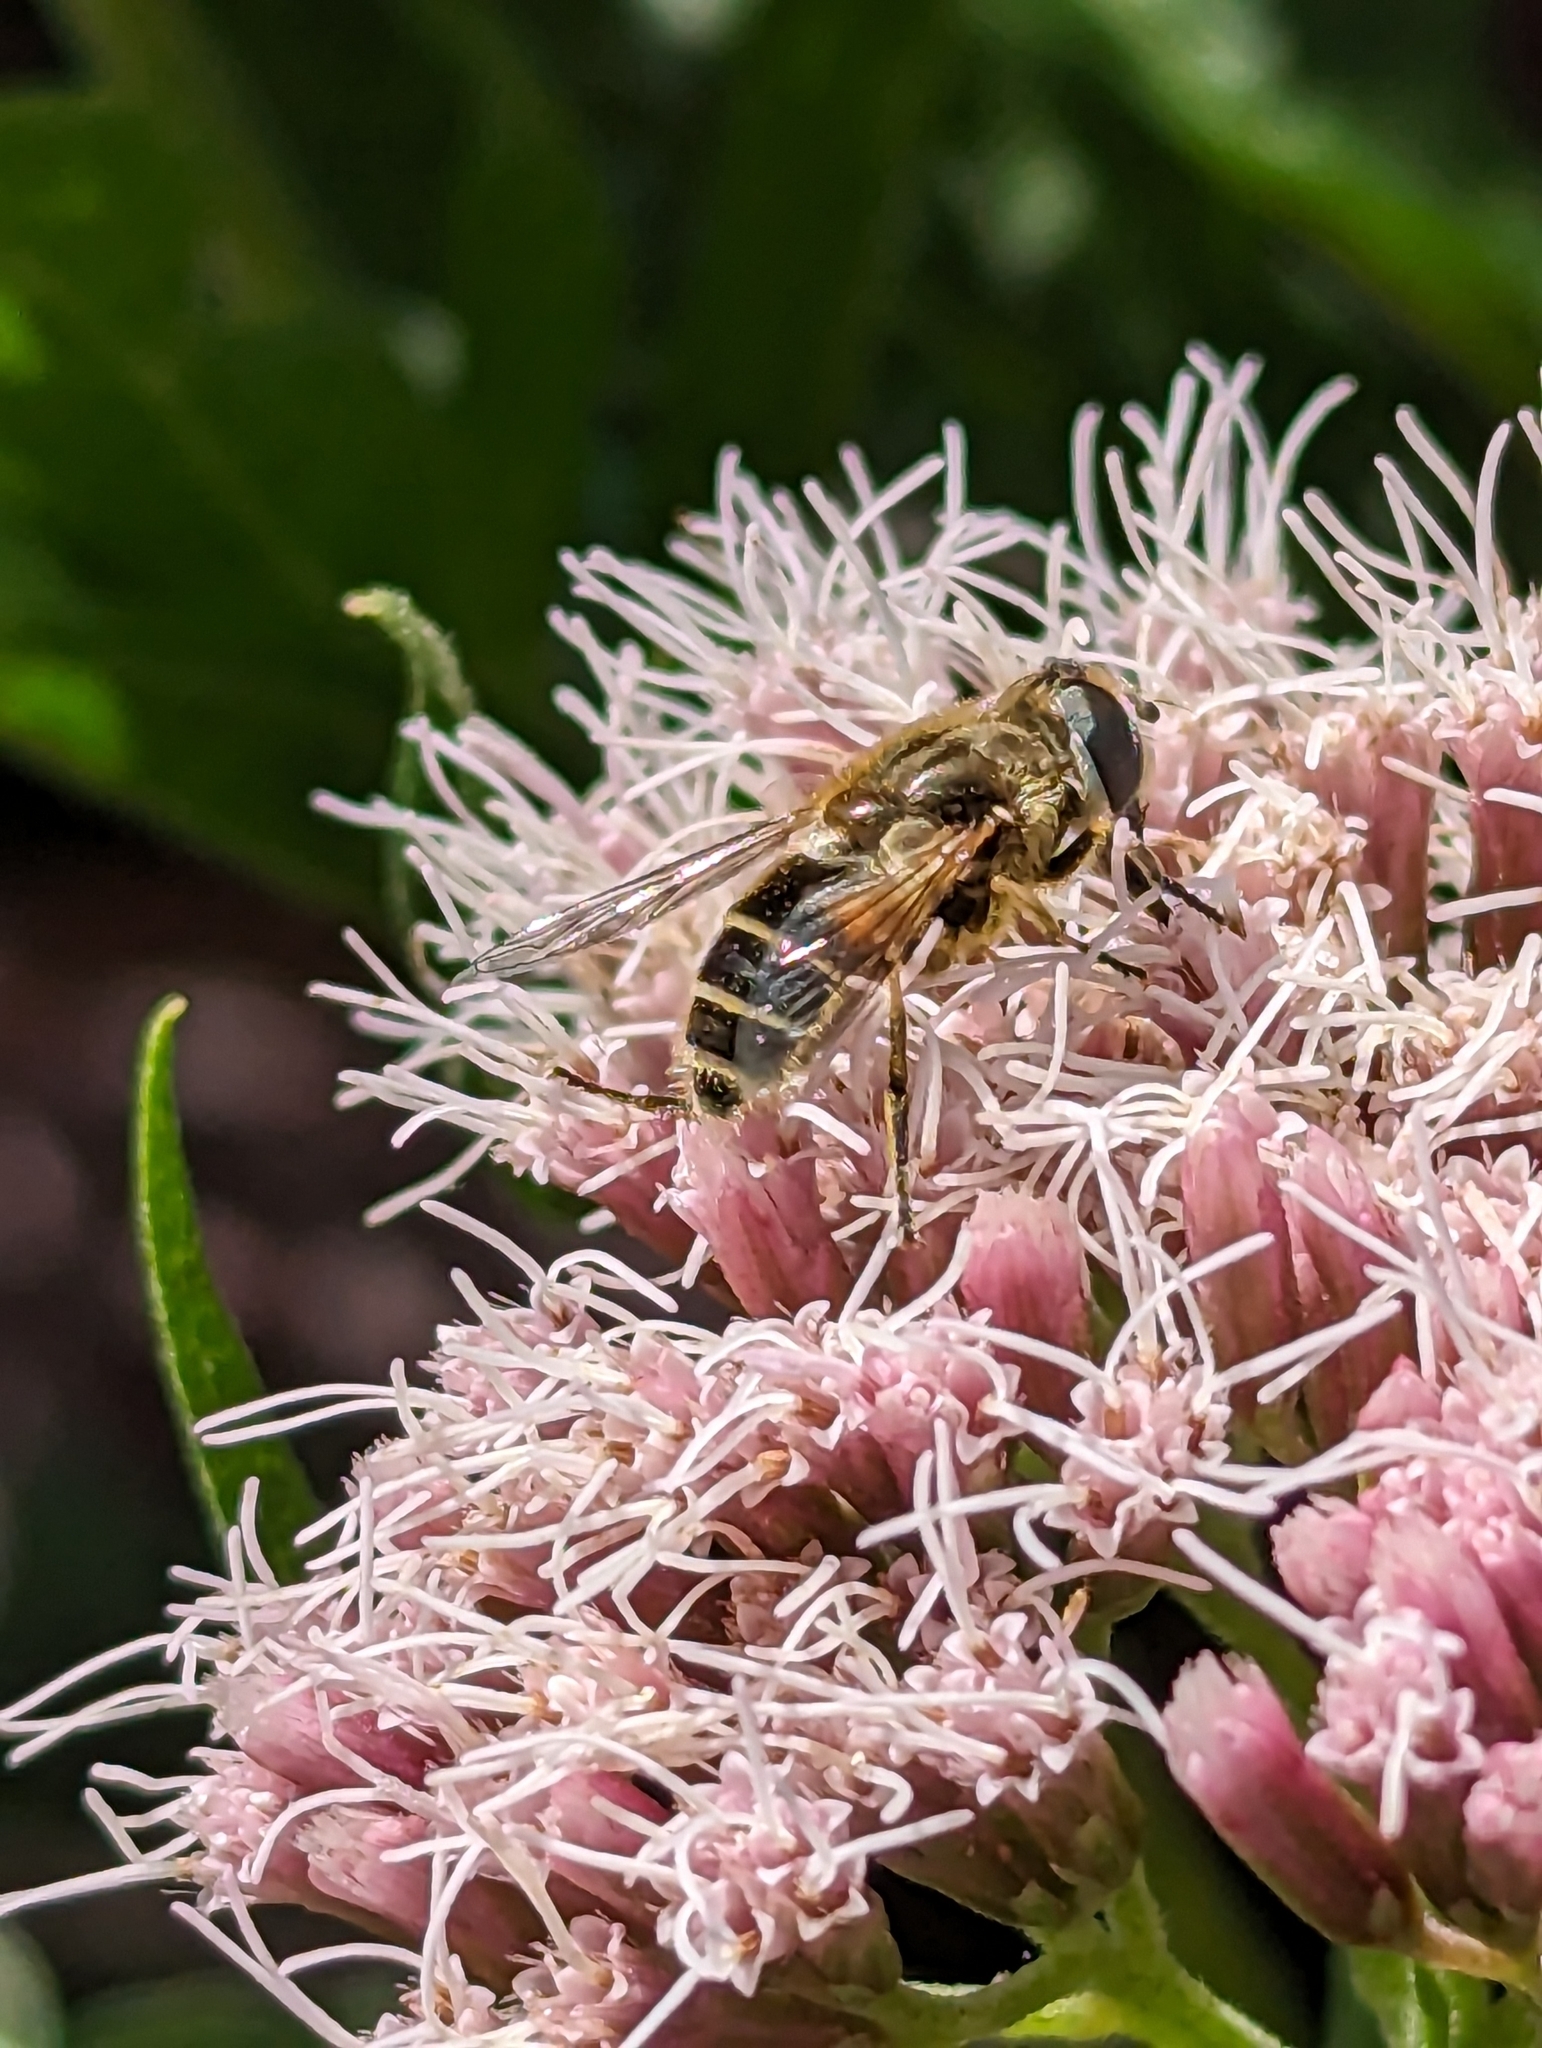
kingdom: Animalia
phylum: Arthropoda
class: Insecta
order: Diptera
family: Syrphidae
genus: Eristalis
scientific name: Eristalis arbustorum
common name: Hover fly
